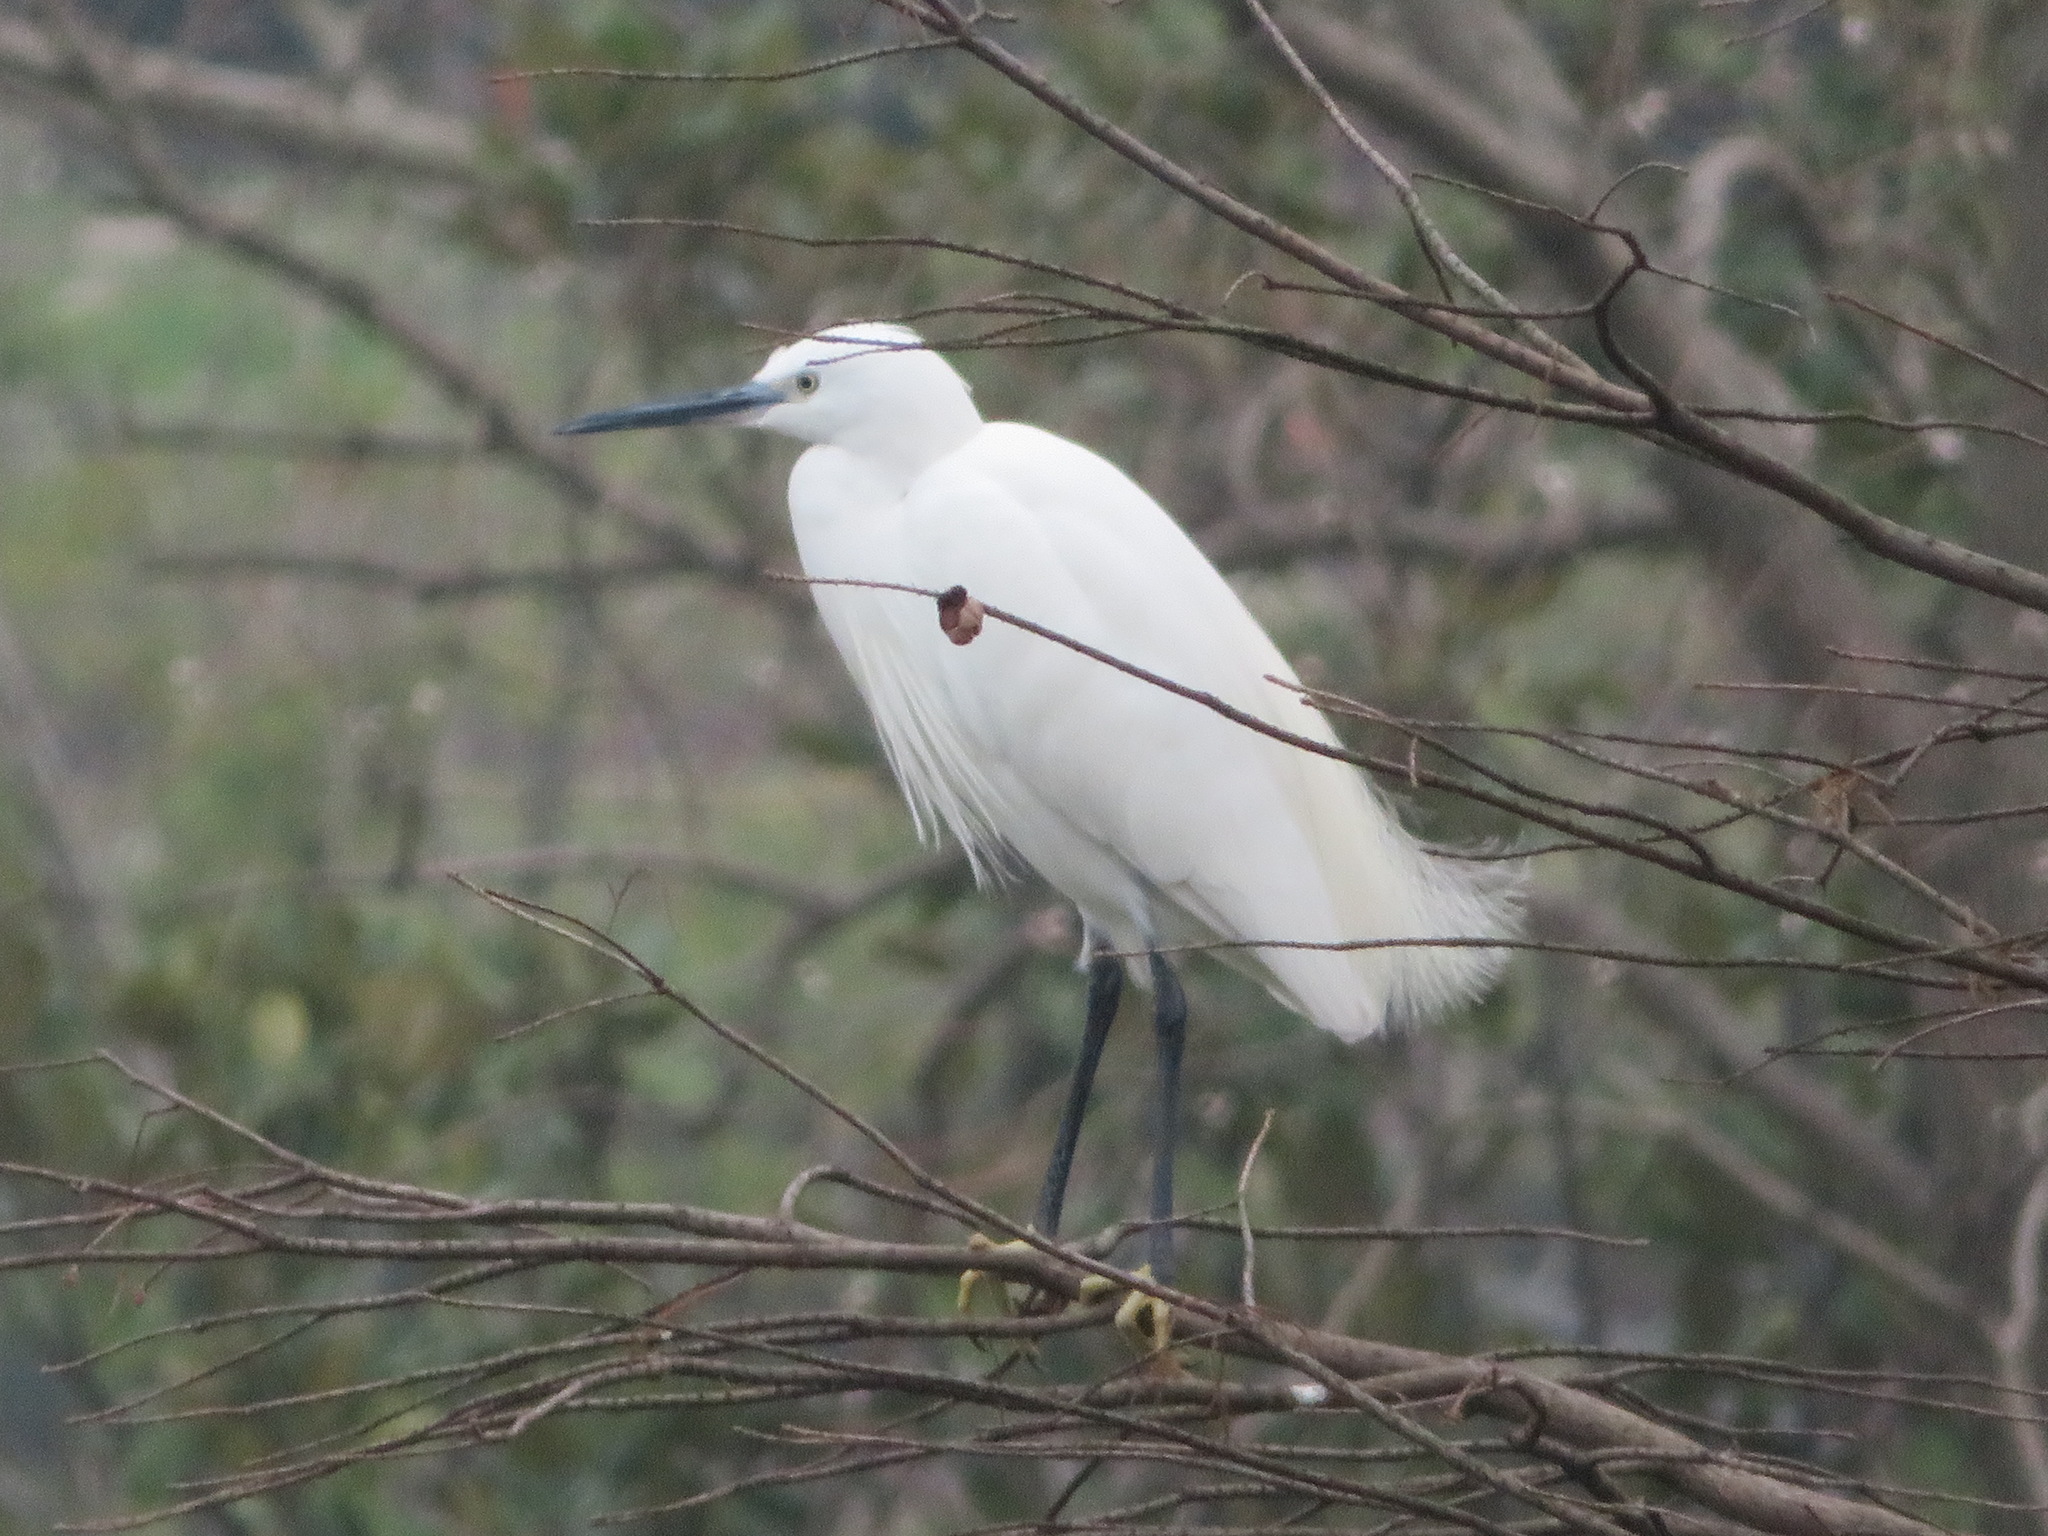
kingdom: Animalia
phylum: Chordata
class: Aves
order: Pelecaniformes
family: Ardeidae
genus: Egretta
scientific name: Egretta garzetta
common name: Little egret
